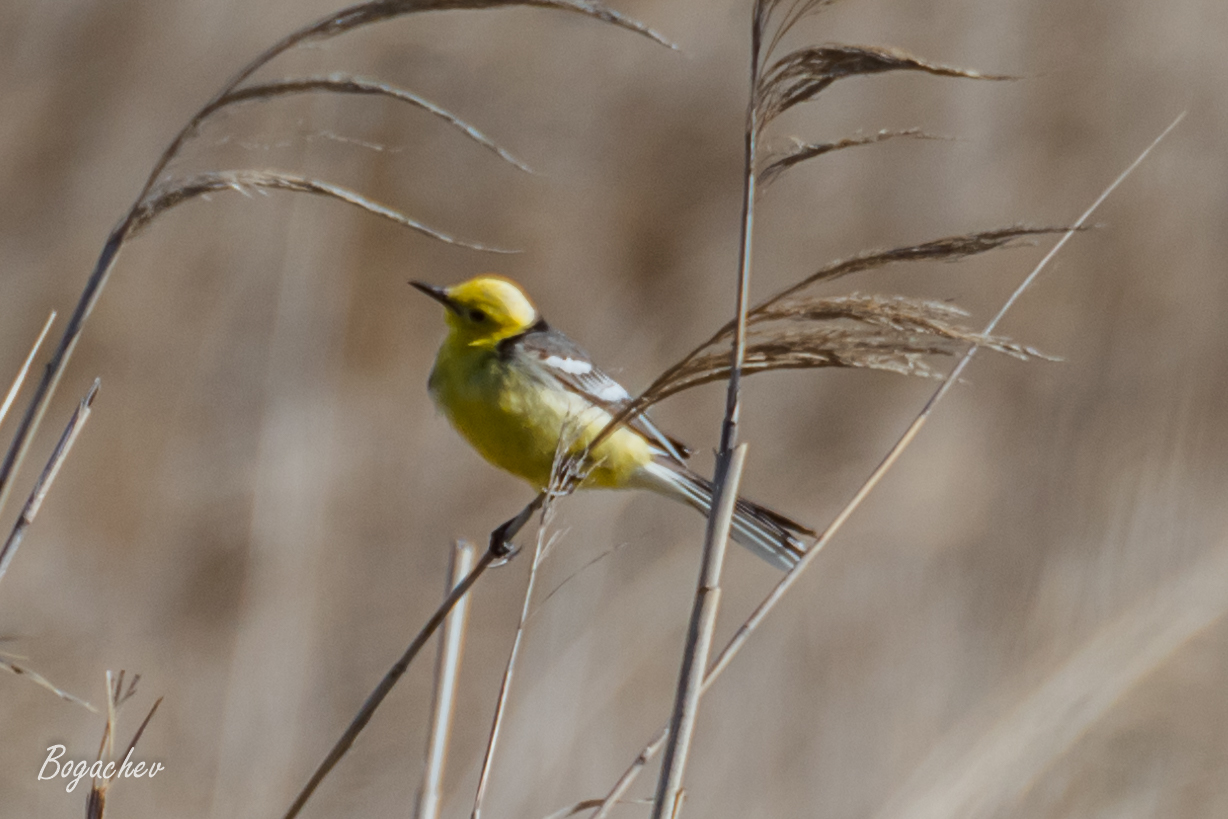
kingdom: Animalia
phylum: Chordata
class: Aves
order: Passeriformes
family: Motacillidae
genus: Motacilla
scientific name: Motacilla citreola
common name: Citrine wagtail
